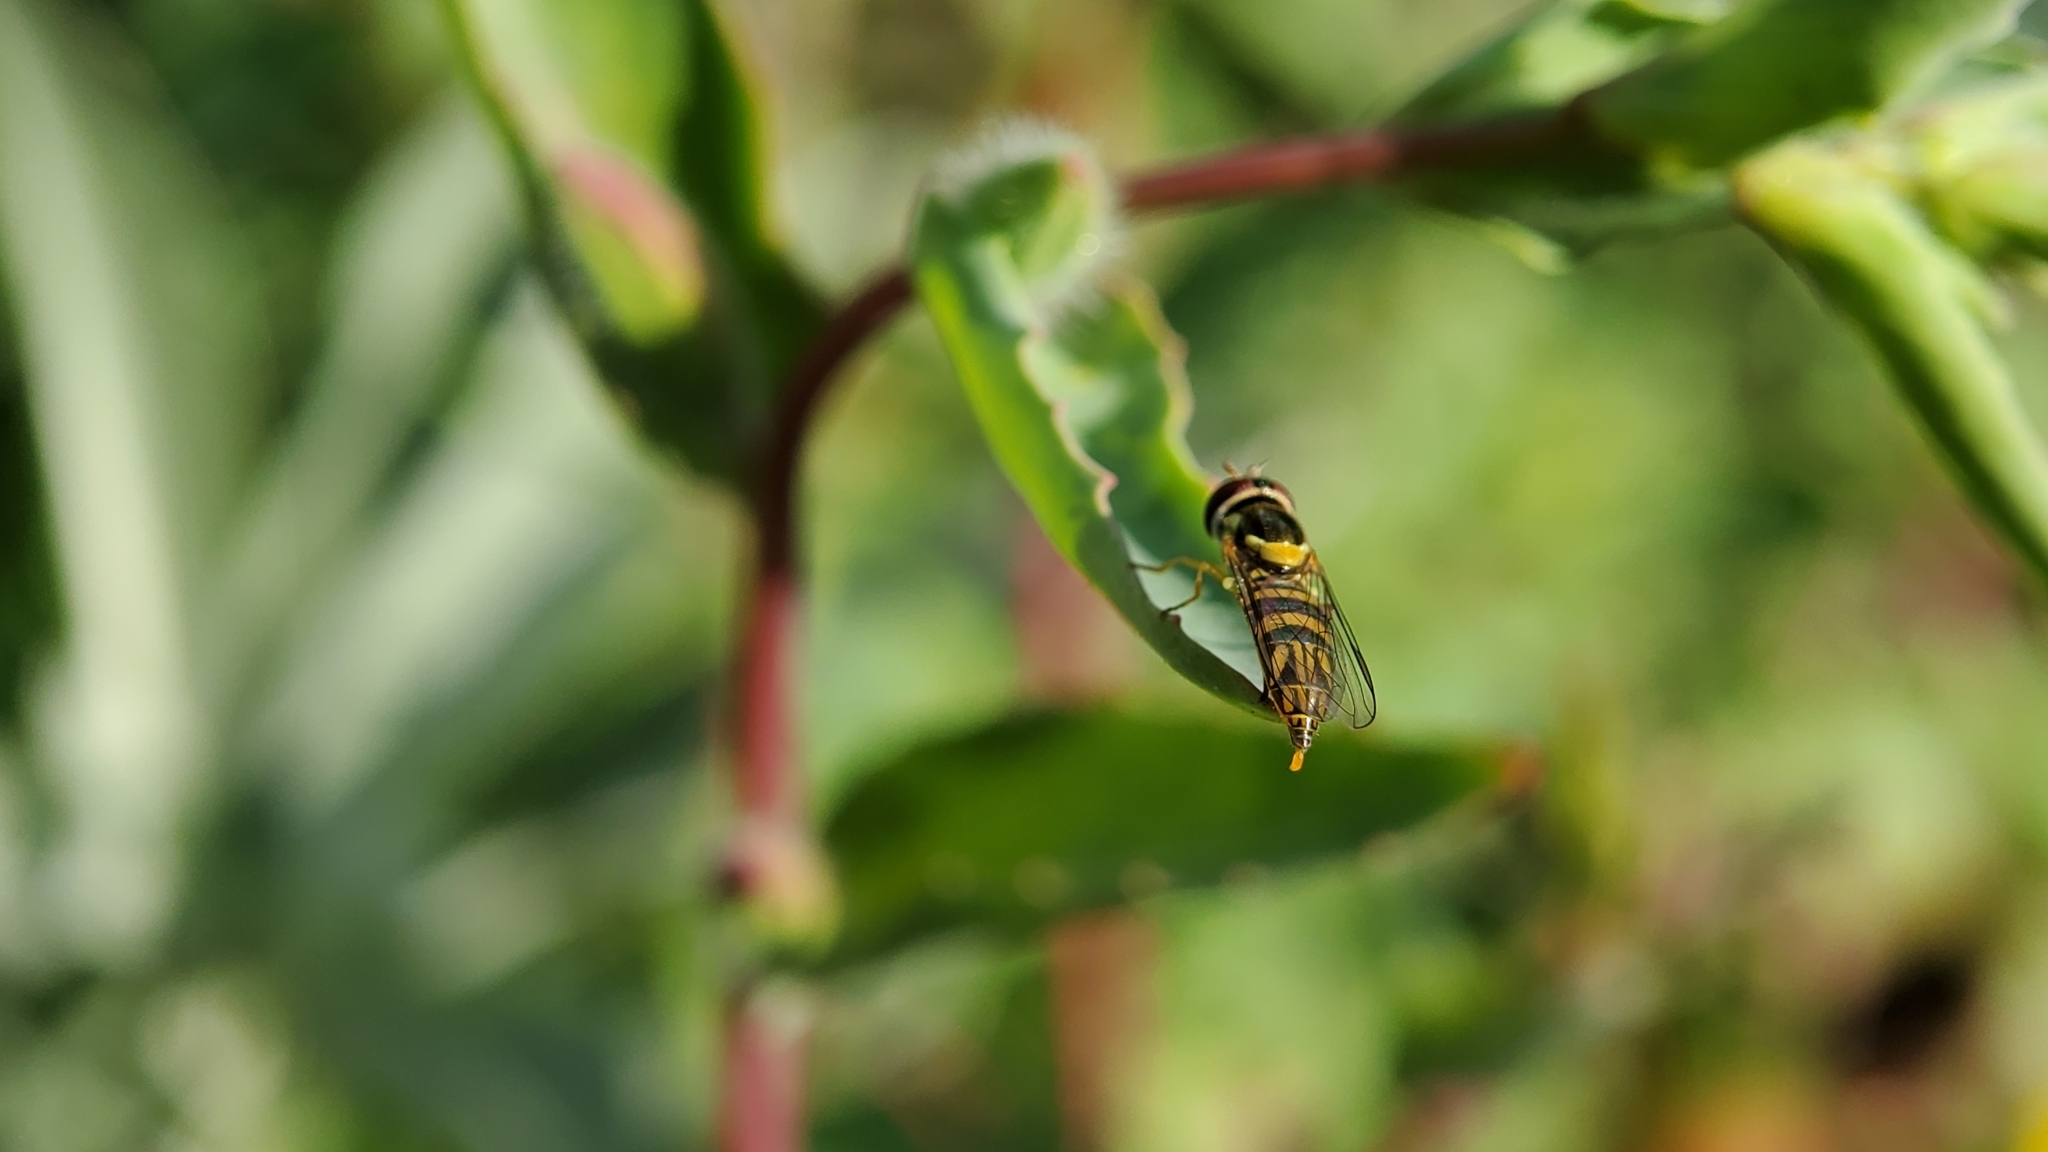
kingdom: Animalia
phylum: Arthropoda
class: Insecta
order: Diptera
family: Syrphidae
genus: Toxomerus
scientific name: Toxomerus marginatus
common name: Syrphid fly
